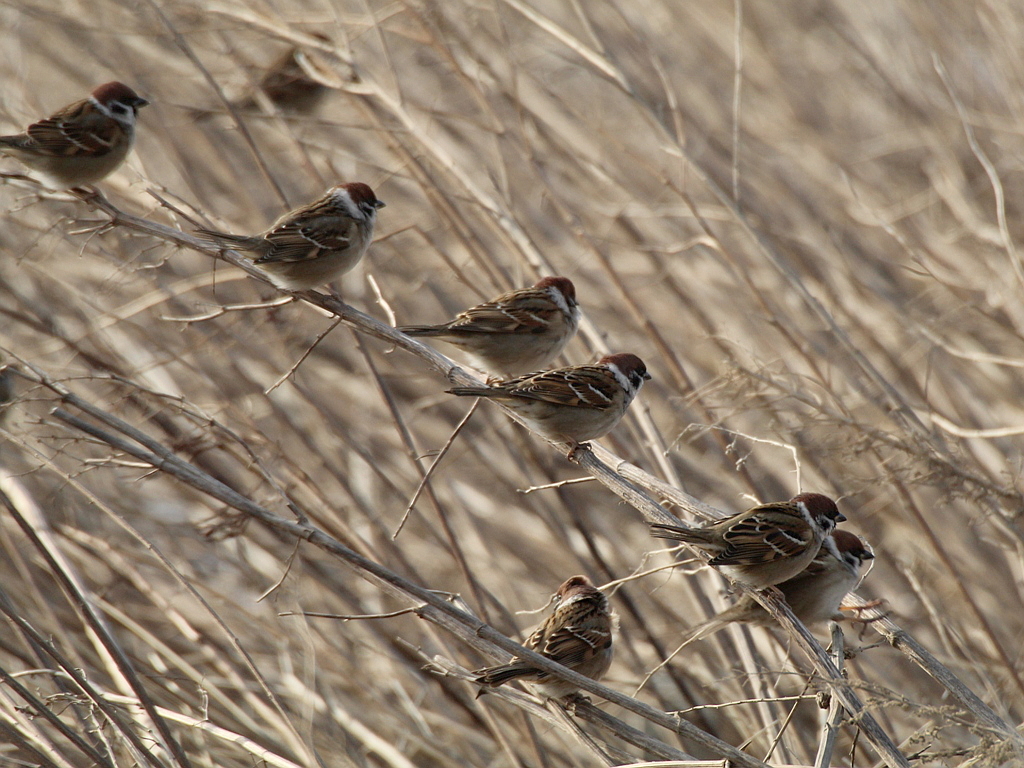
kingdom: Animalia
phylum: Chordata
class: Aves
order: Passeriformes
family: Passeridae
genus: Passer
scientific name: Passer montanus
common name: Eurasian tree sparrow
